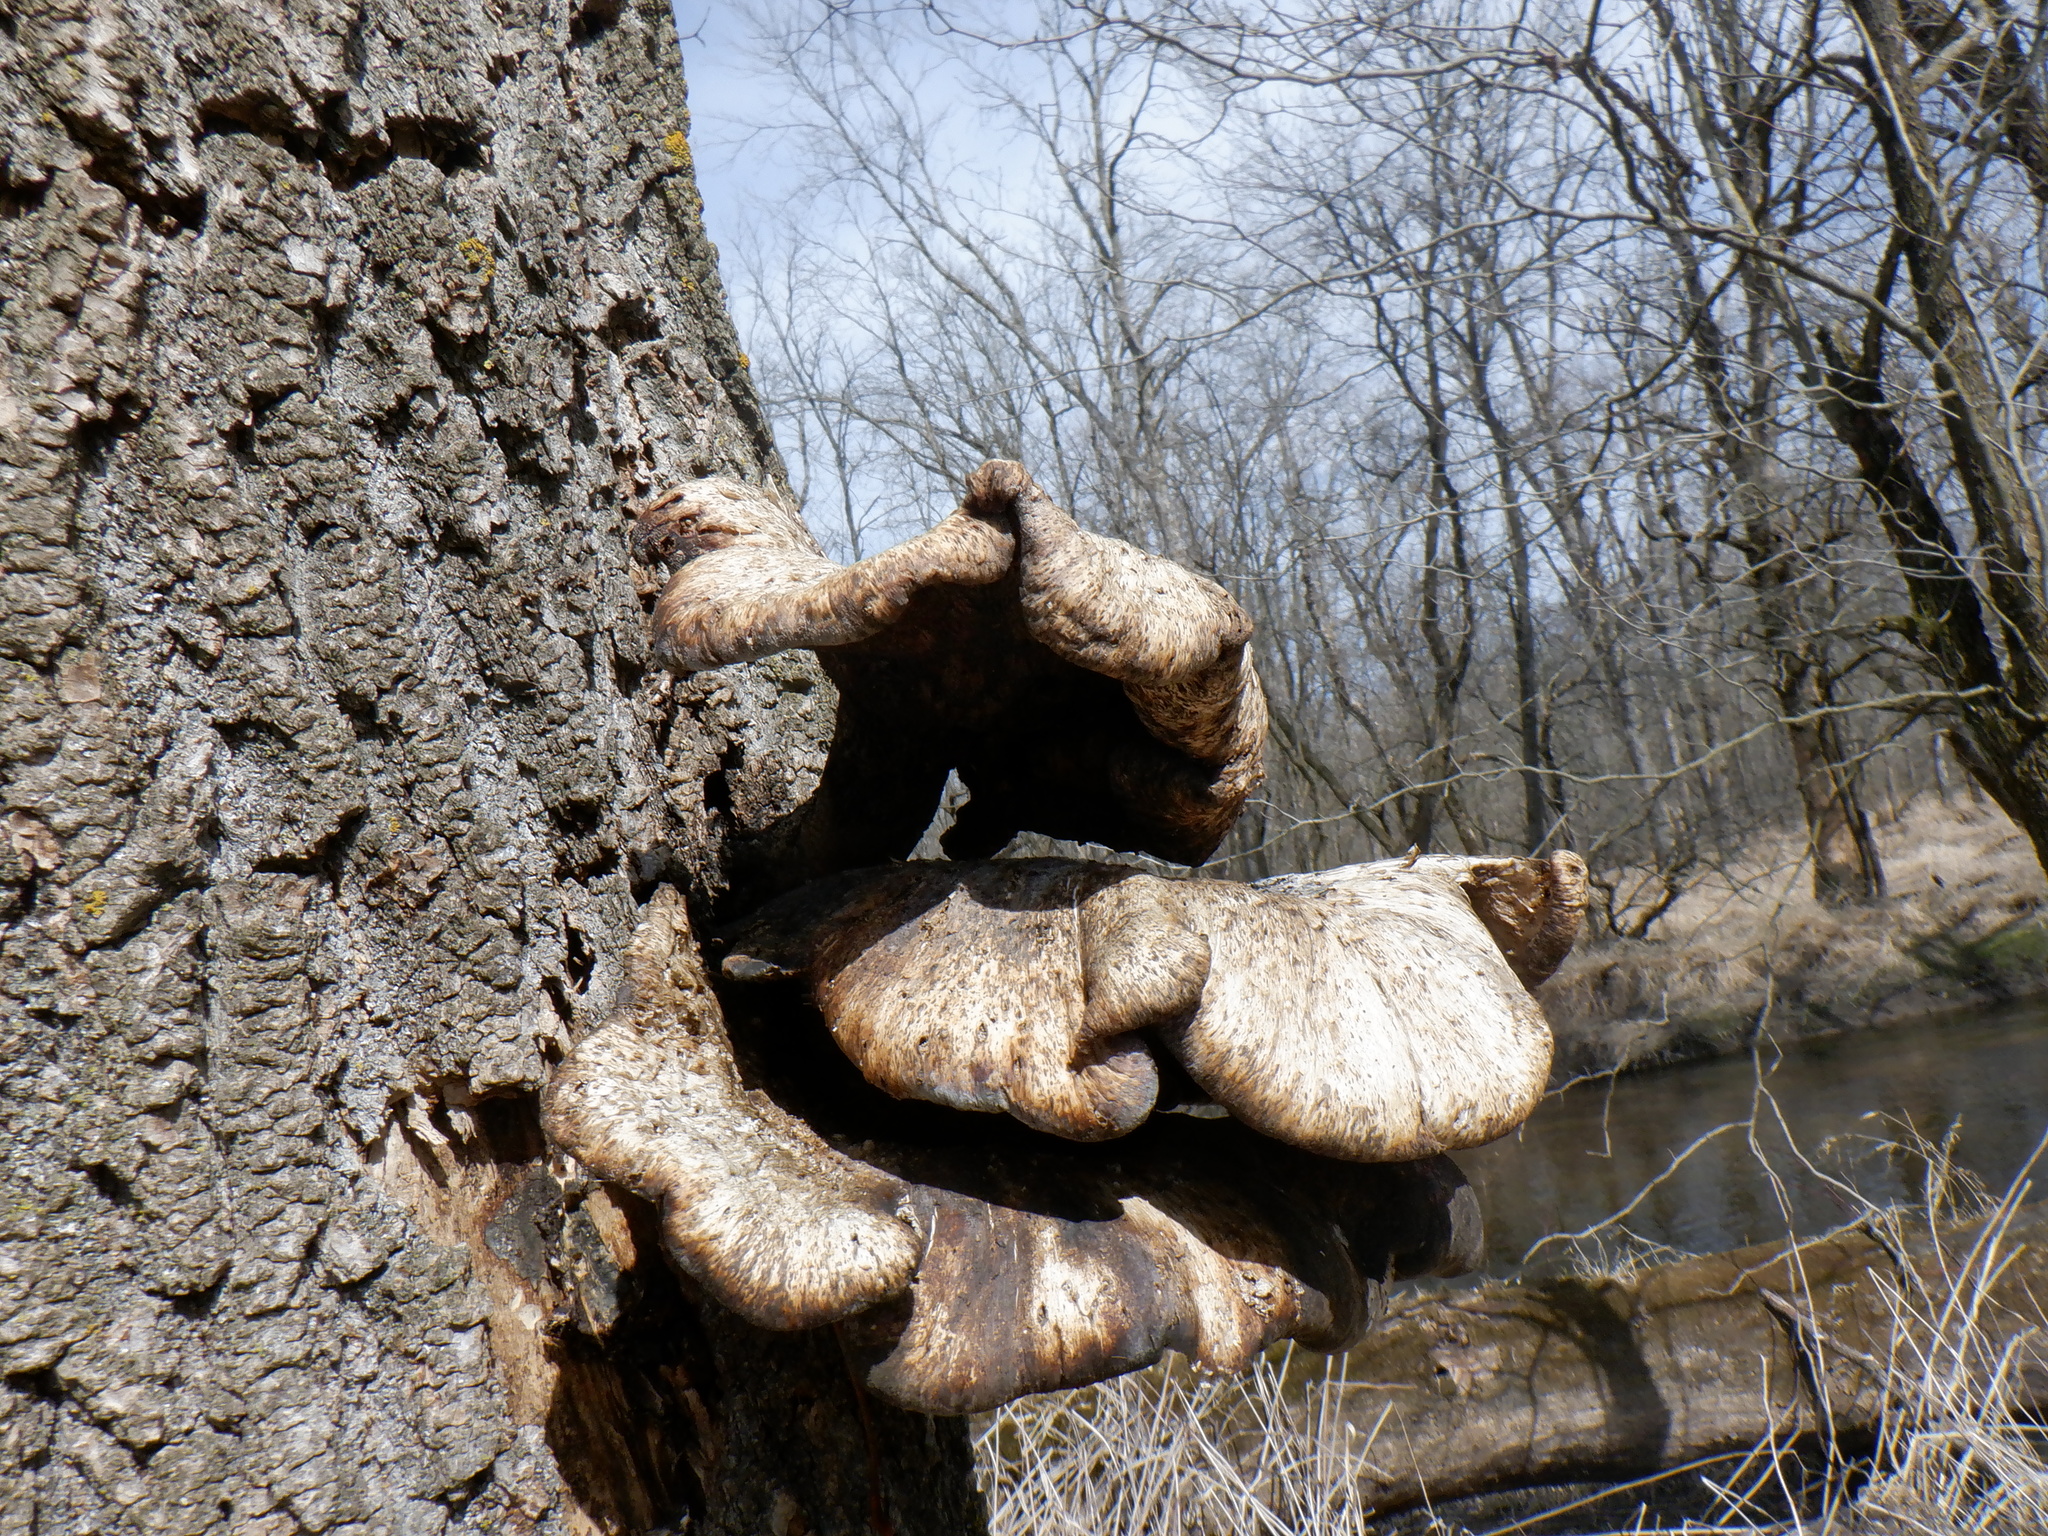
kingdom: Fungi
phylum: Basidiomycota
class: Agaricomycetes
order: Polyporales
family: Polyporaceae
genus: Cerioporus
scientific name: Cerioporus squamosus
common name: Dryad's saddle
